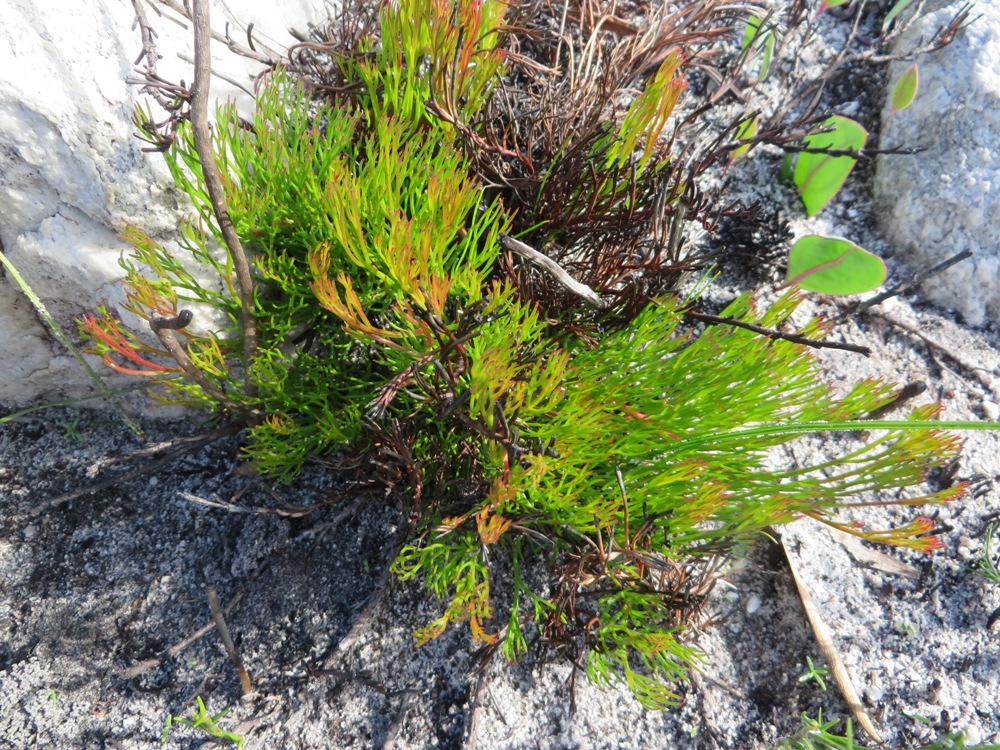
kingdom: Plantae
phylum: Tracheophyta
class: Magnoliopsida
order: Proteales
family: Proteaceae
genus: Serruria
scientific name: Serruria rubricaulis
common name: Red-stem spiderhead
